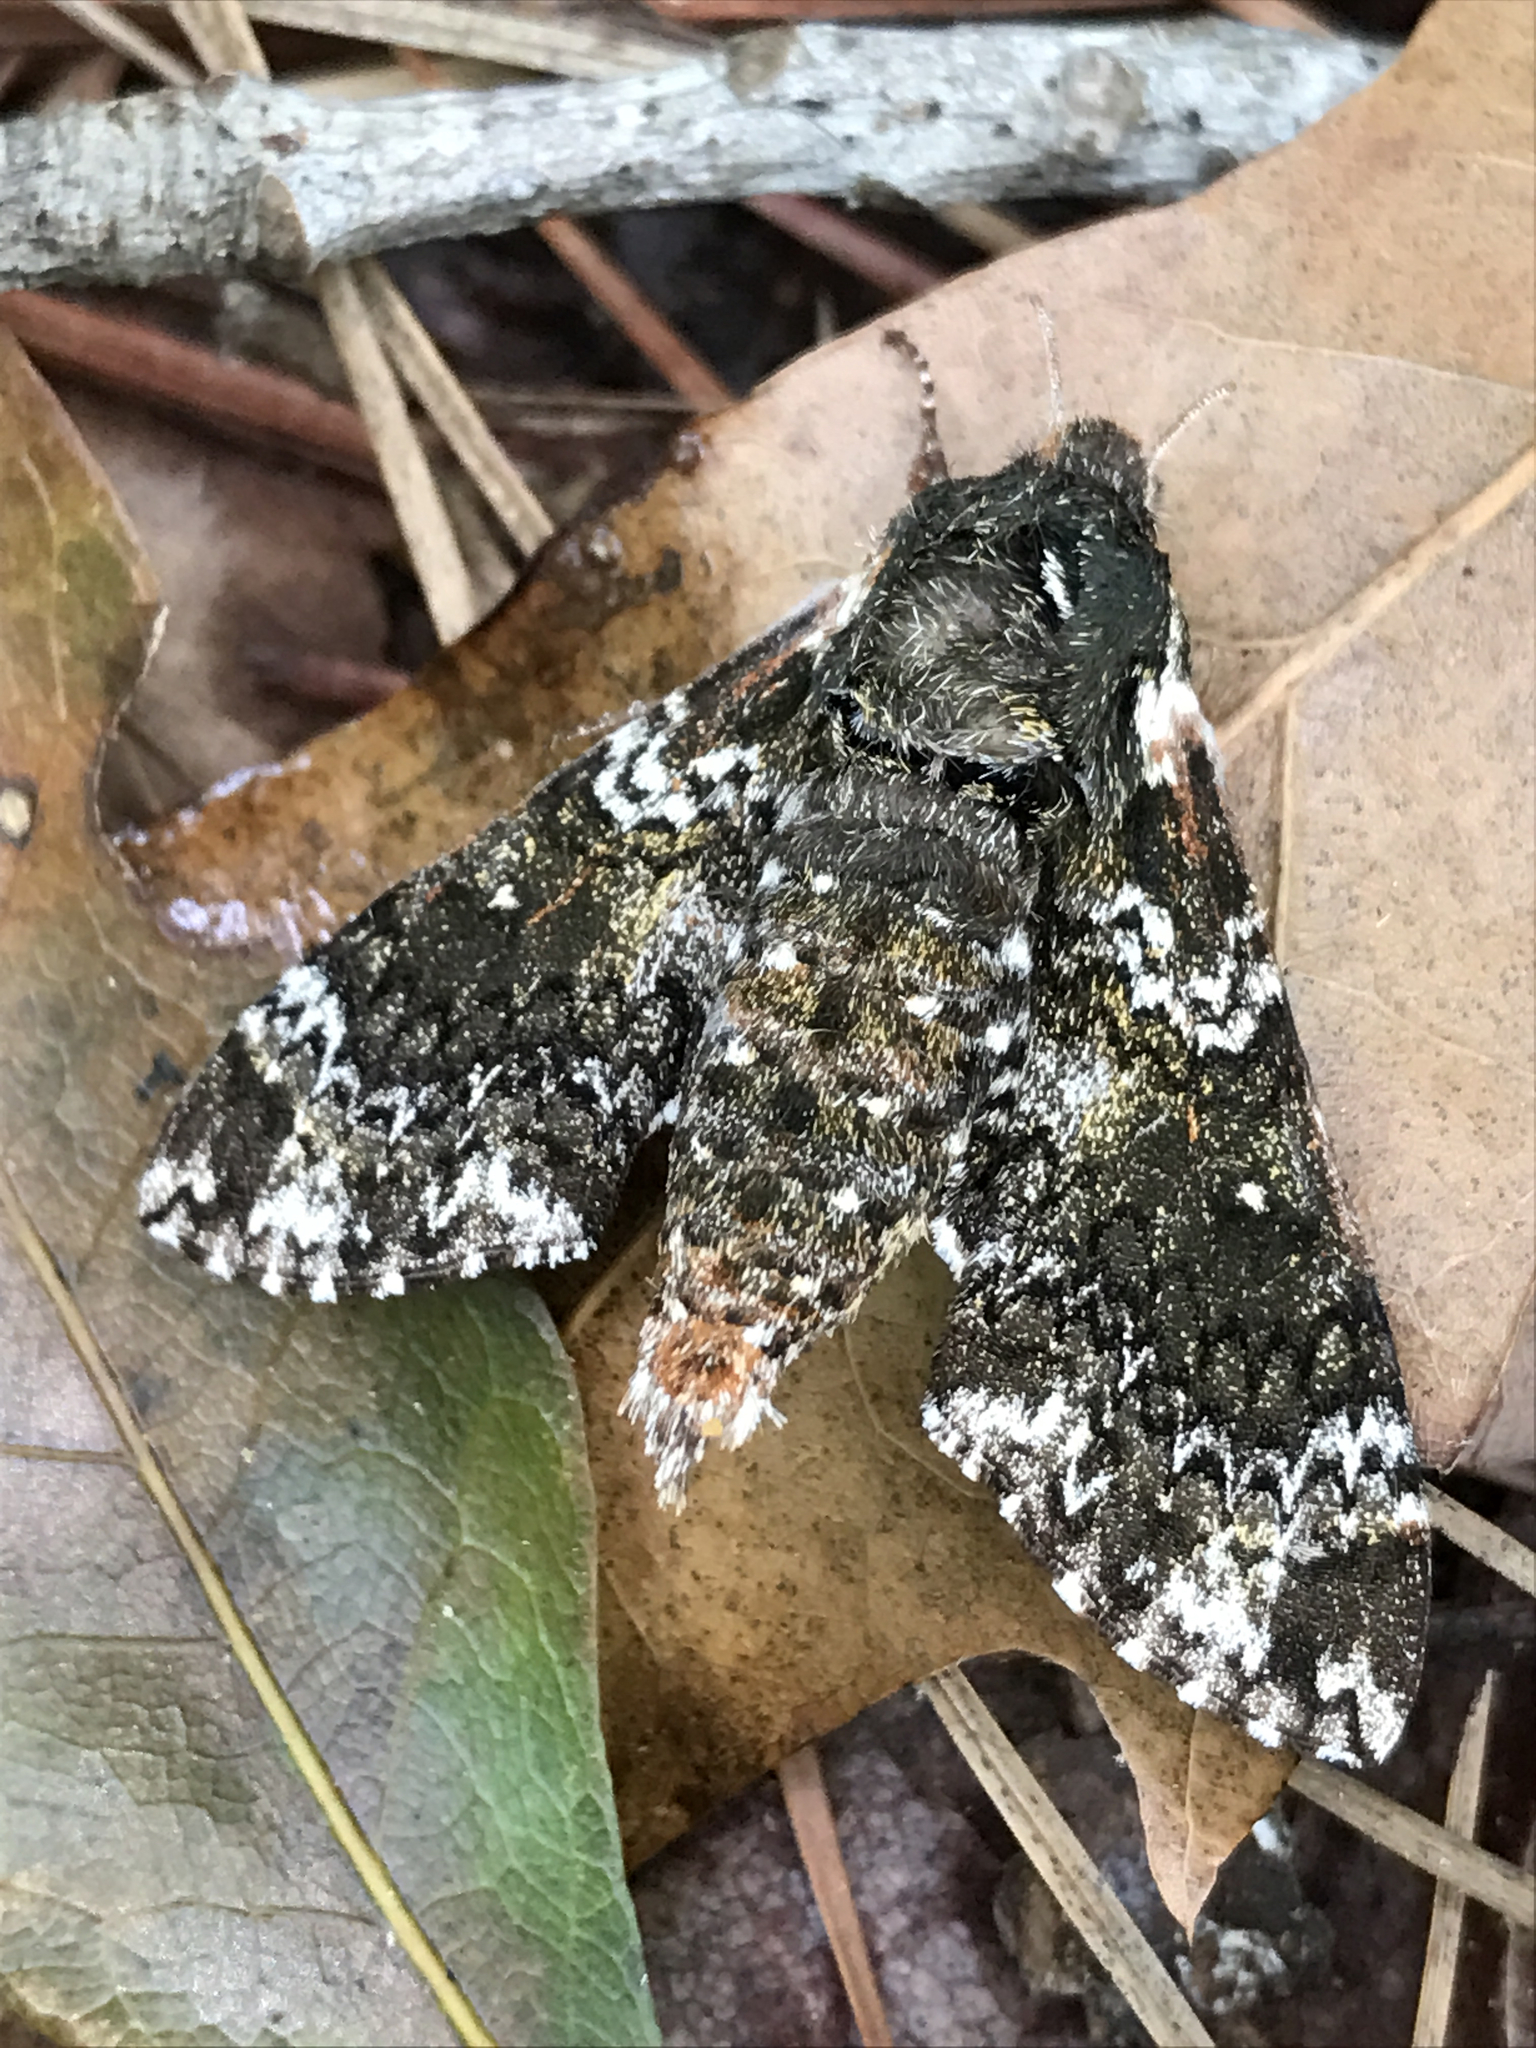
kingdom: Animalia
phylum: Arthropoda
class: Insecta
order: Lepidoptera
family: Sphingidae
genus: Dolba
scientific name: Dolba hyloeus
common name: Pawpaw sphinx
